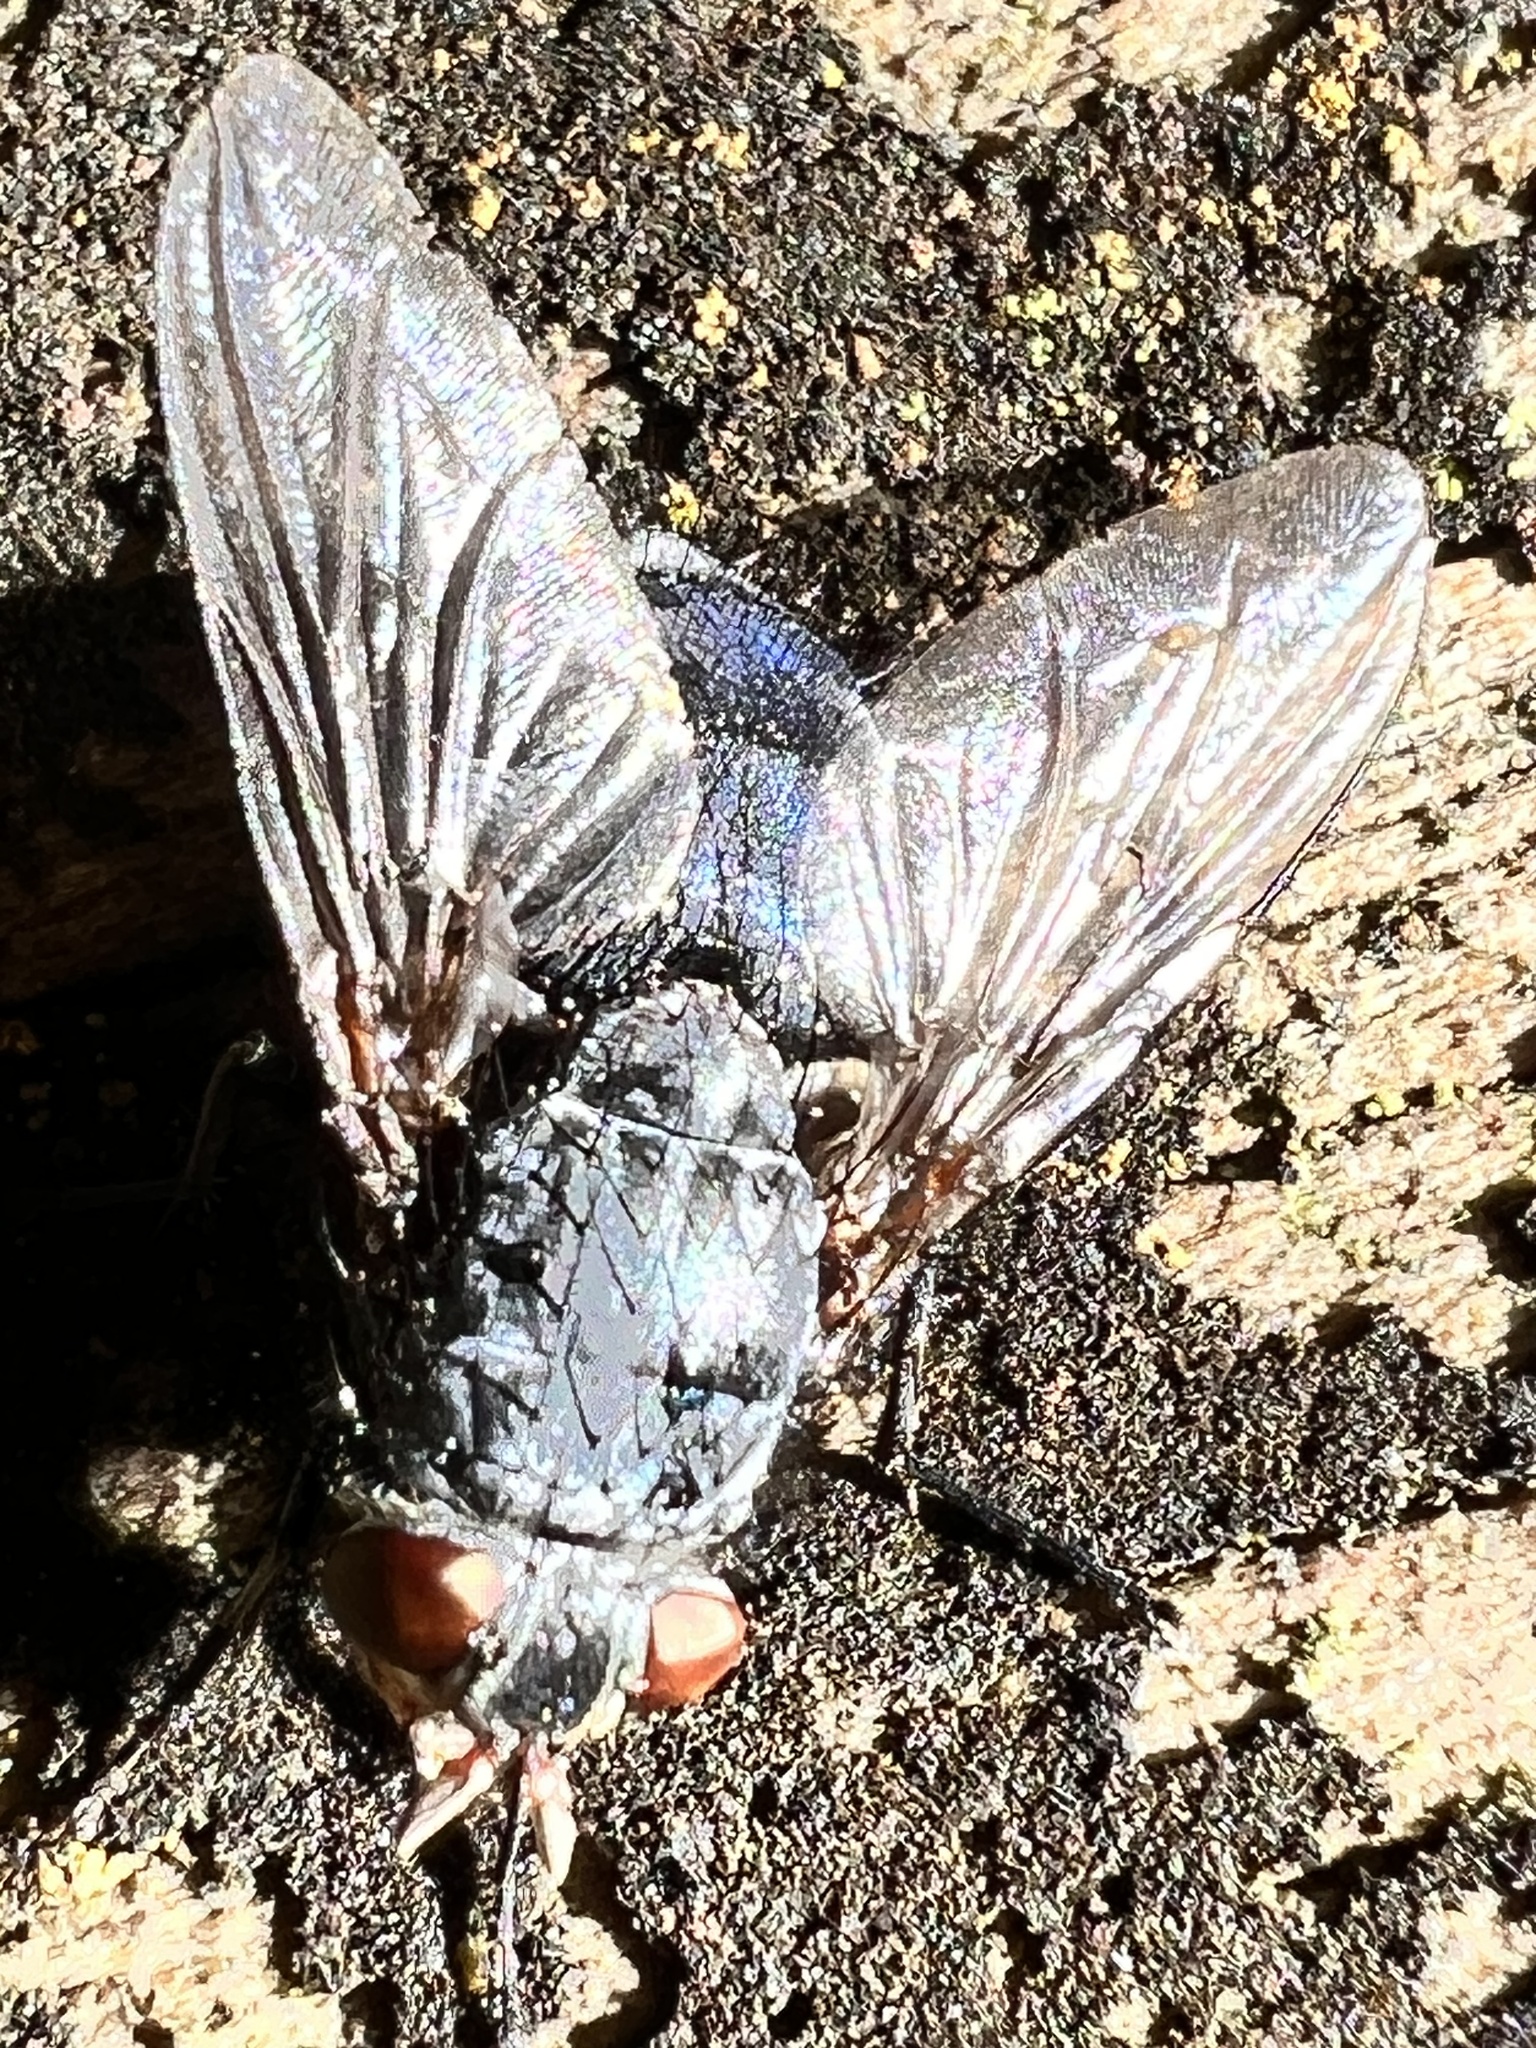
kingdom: Animalia
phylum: Arthropoda
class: Insecta
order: Diptera
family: Calliphoridae
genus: Calliphora
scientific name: Calliphora vicina
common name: Common blow flie
